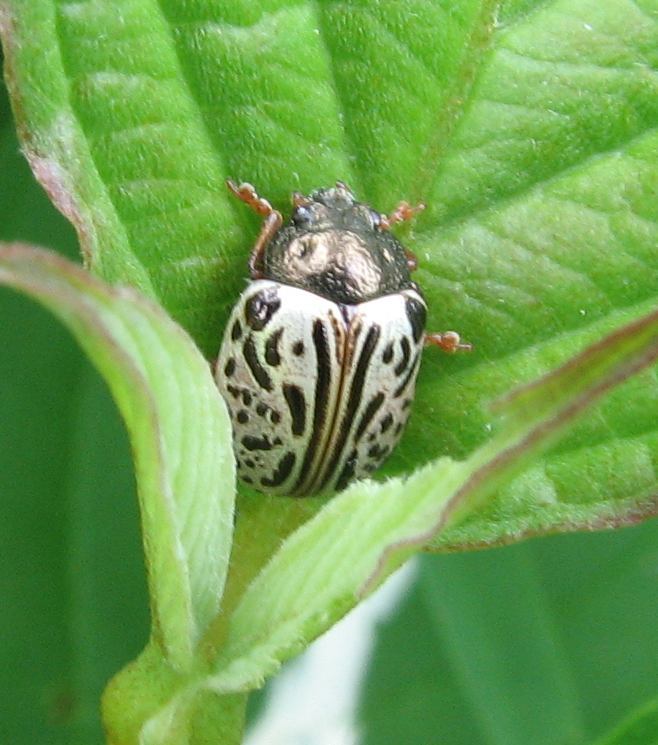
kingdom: Animalia
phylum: Arthropoda
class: Insecta
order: Coleoptera
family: Chrysomelidae
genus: Calligrapha
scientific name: Calligrapha philadelphica
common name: Dogwood leaf beetle
